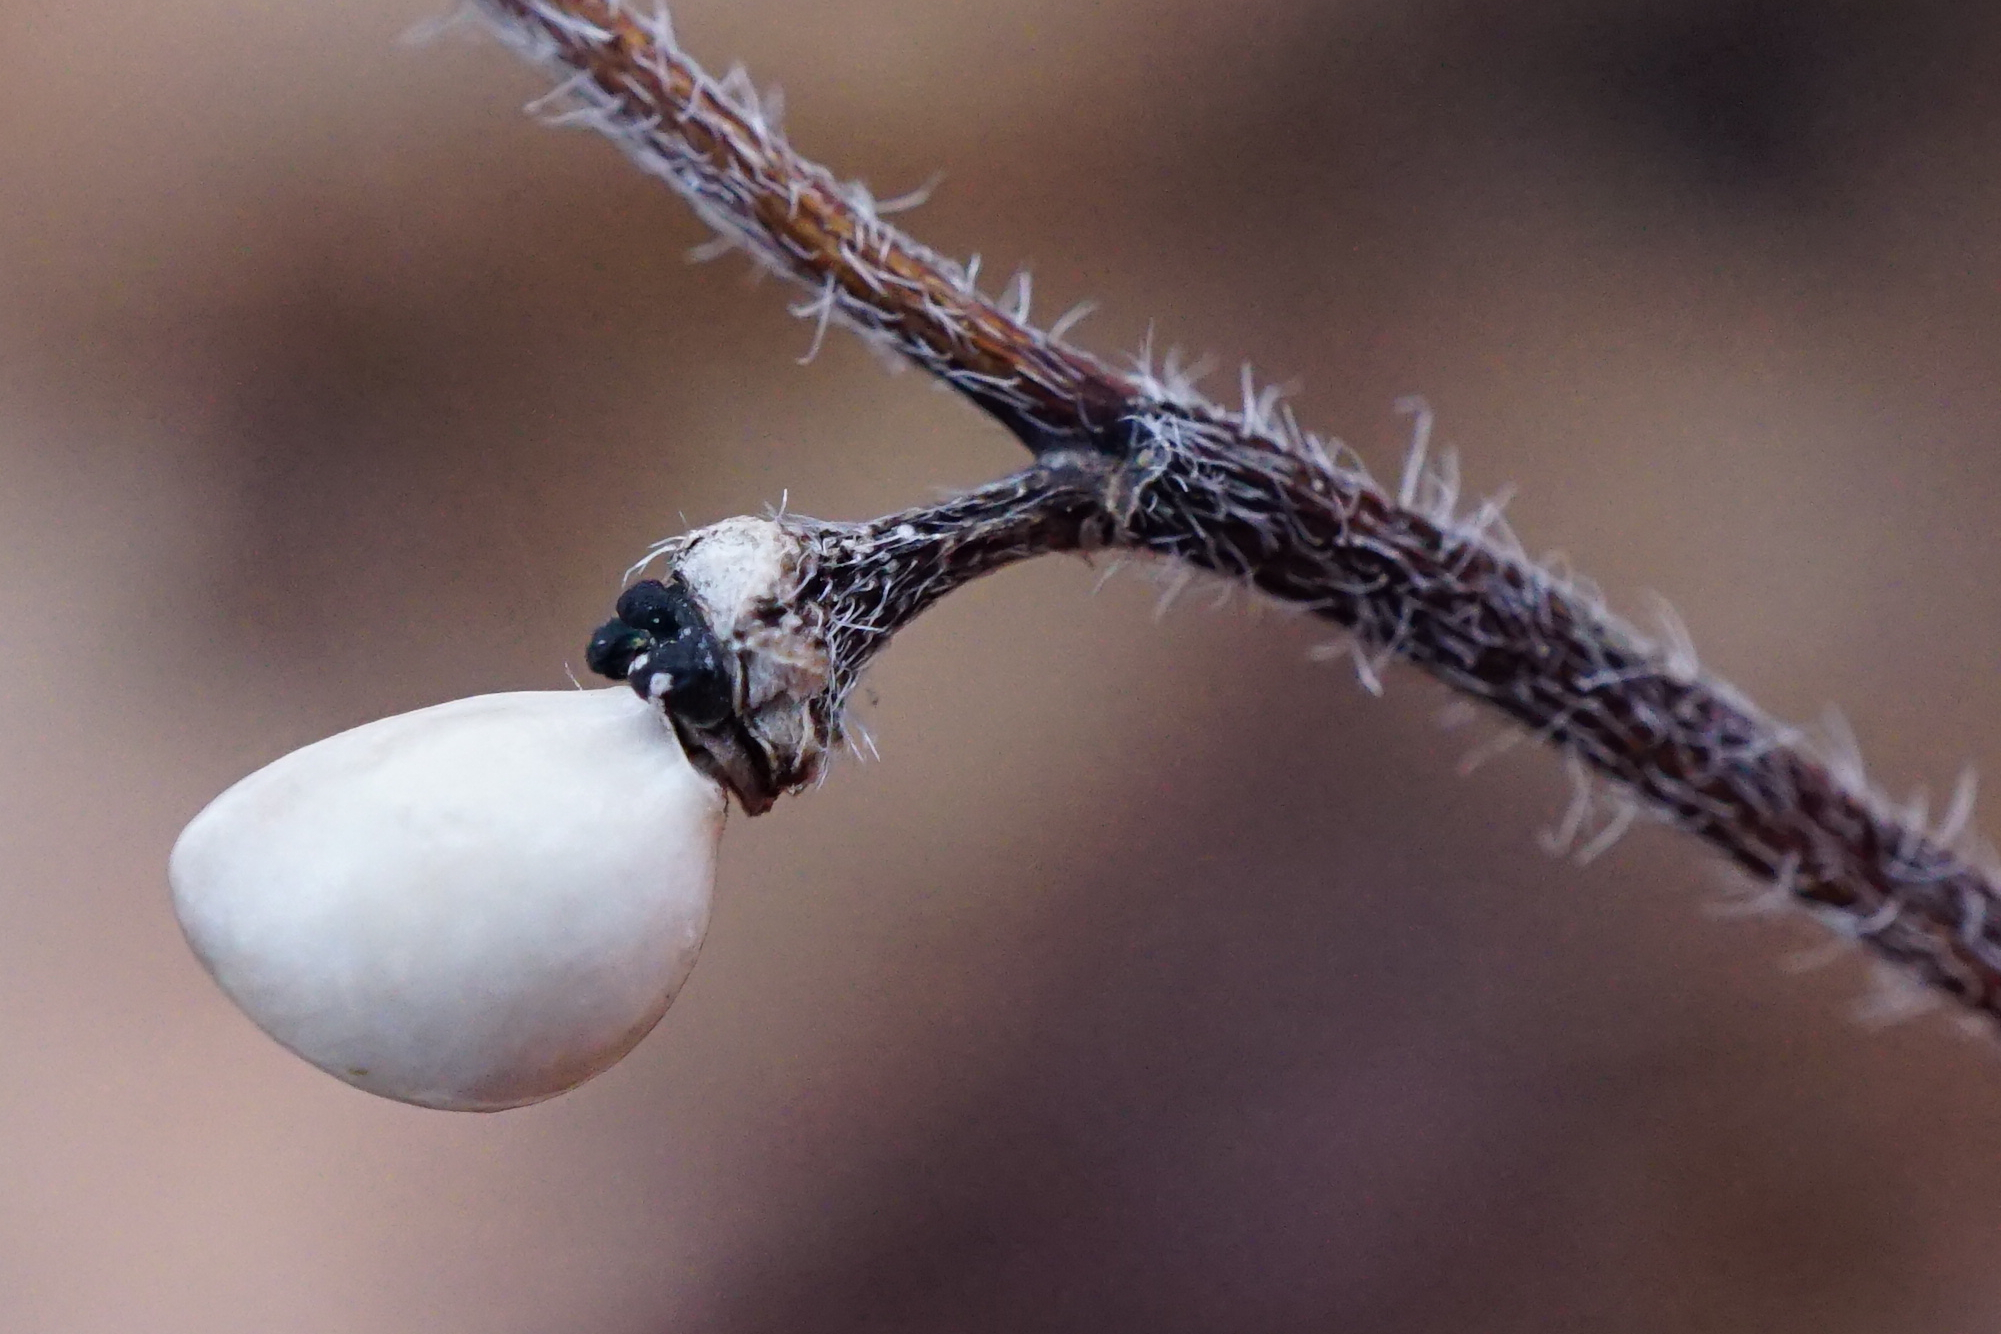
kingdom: Plantae
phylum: Tracheophyta
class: Magnoliopsida
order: Boraginales
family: Boraginaceae
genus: Aegonychon
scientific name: Aegonychon purpurocaeruleum
